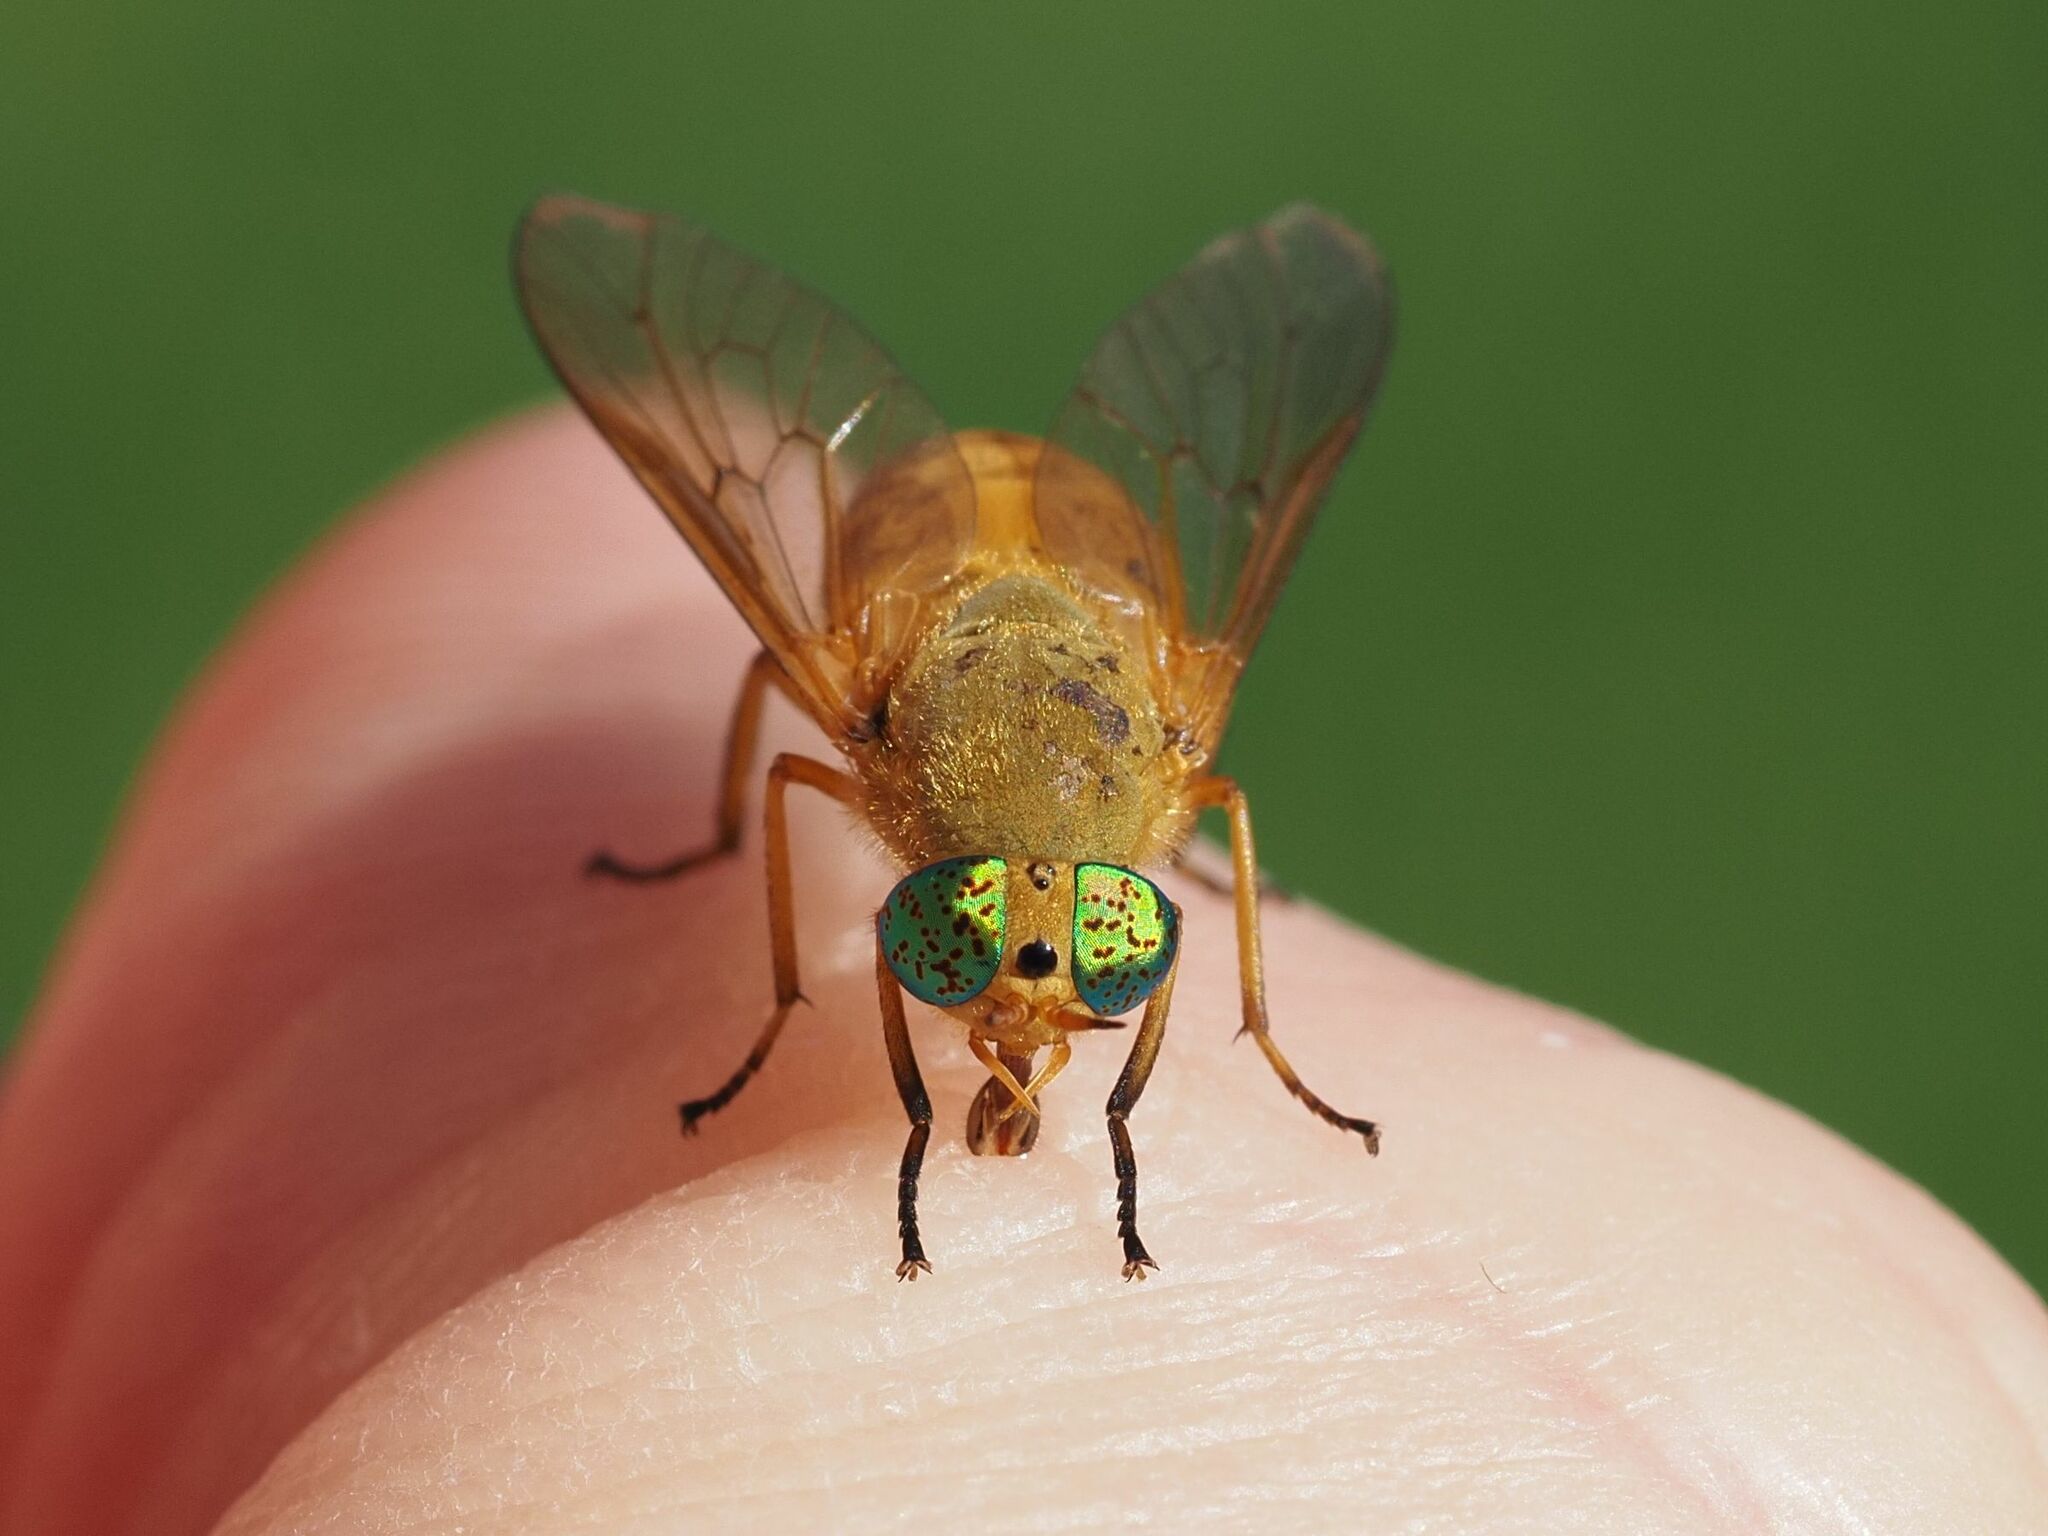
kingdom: Animalia
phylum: Arthropoda
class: Insecta
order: Diptera
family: Tabanidae
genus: Silvius
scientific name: Silvius alpinus
